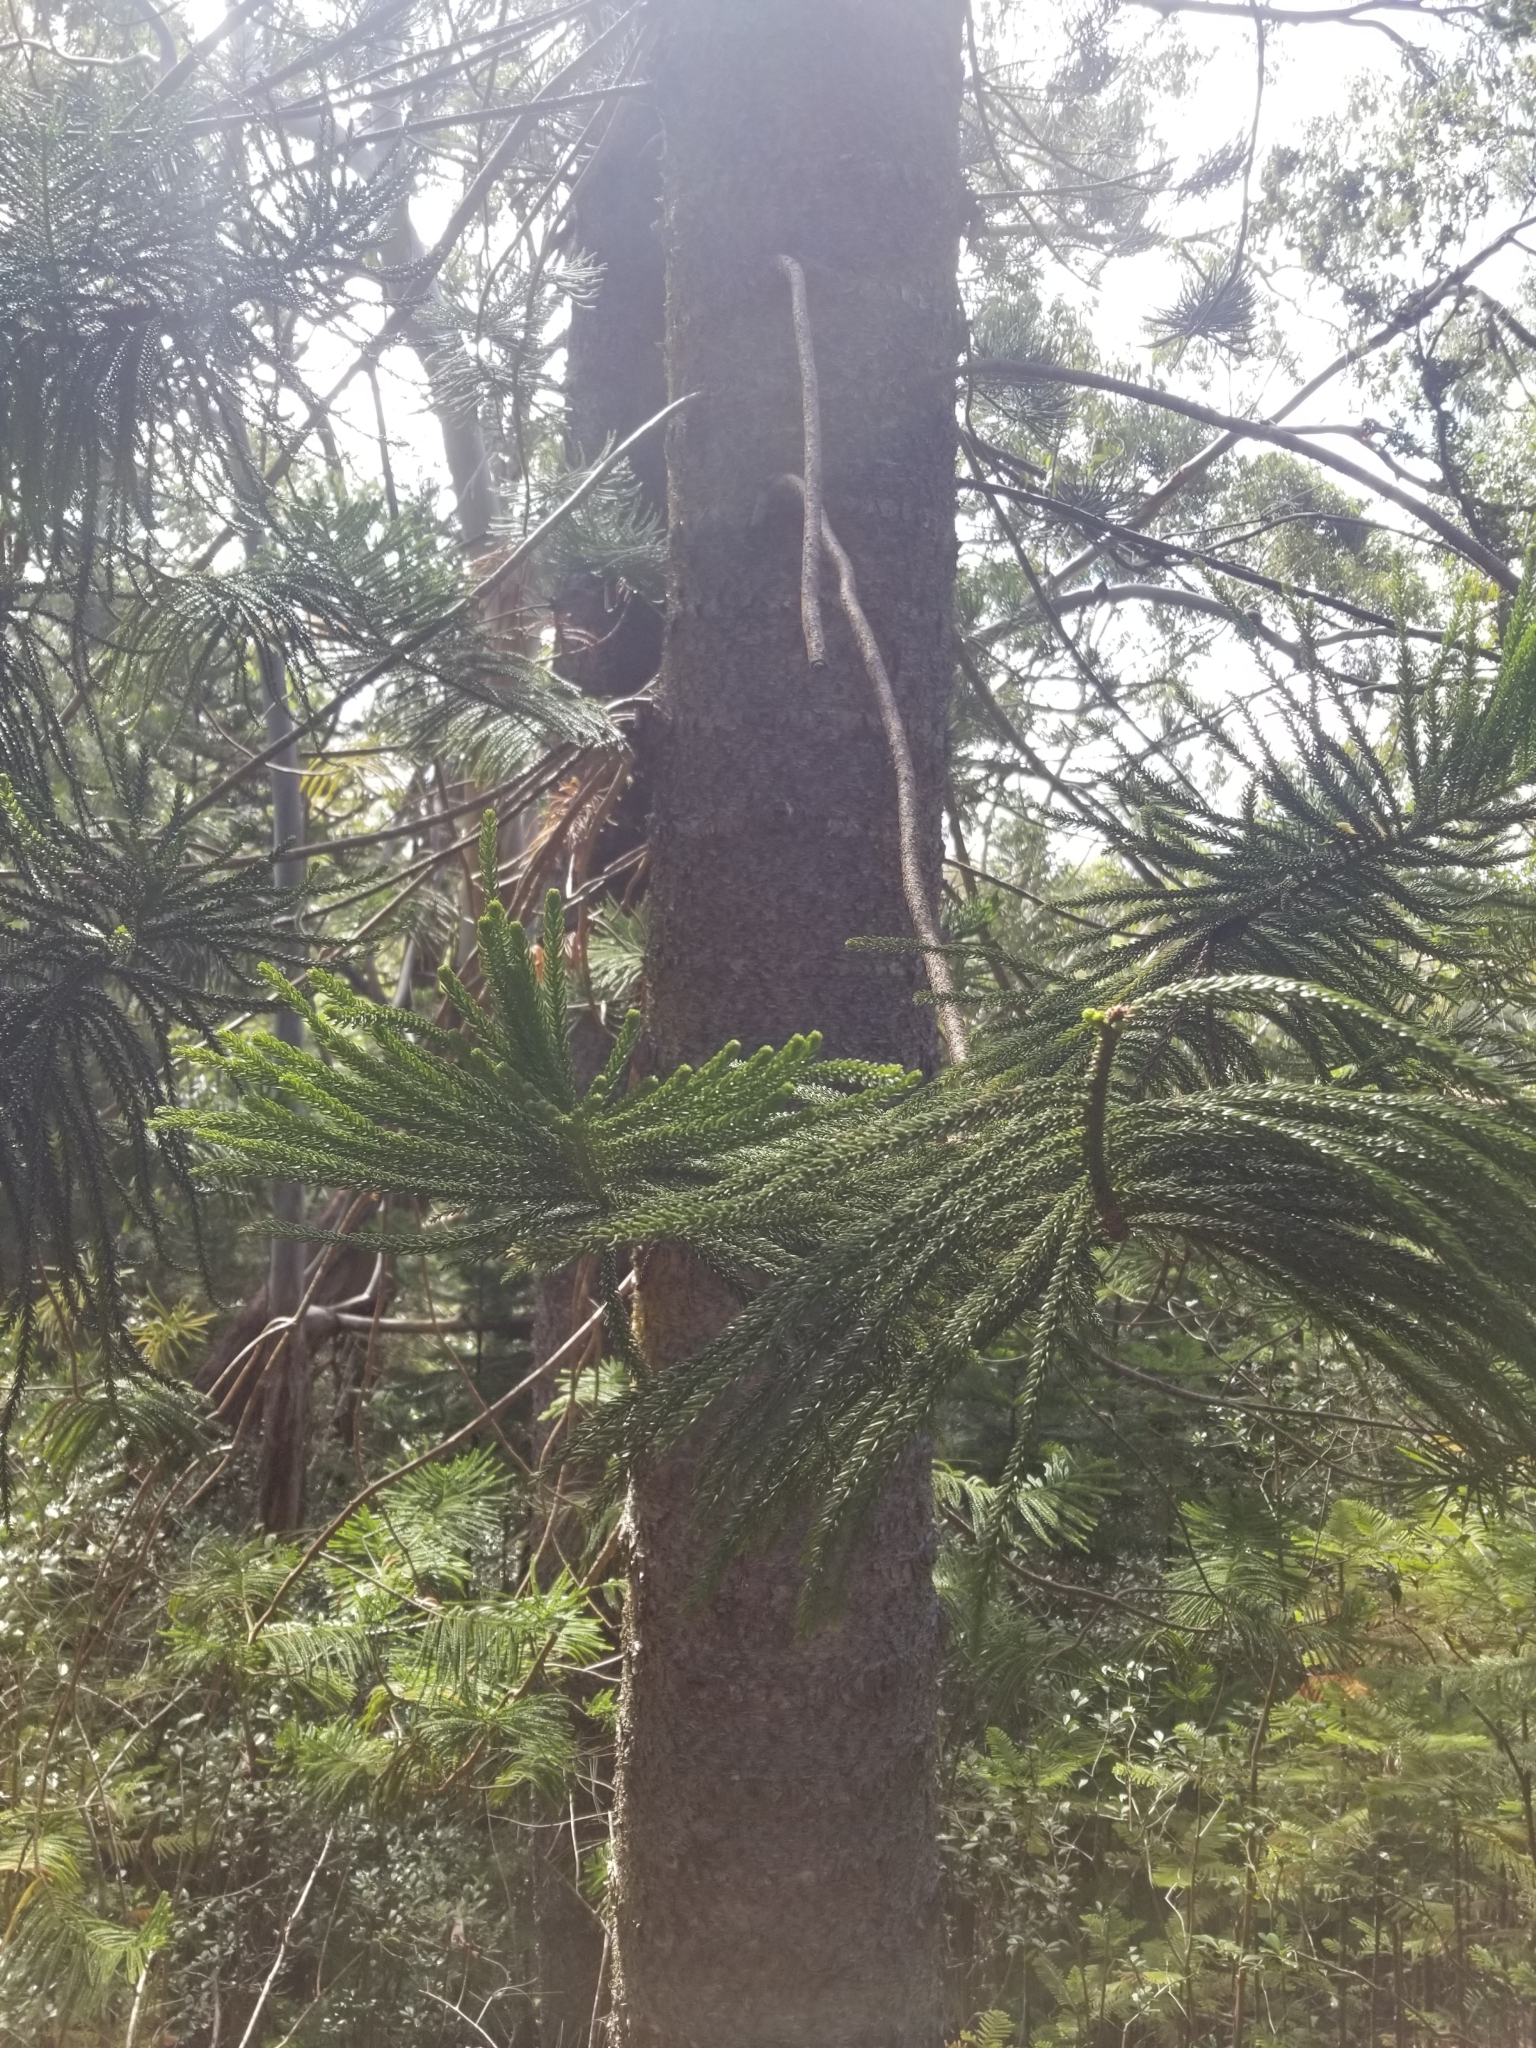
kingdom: Plantae
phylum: Tracheophyta
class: Pinopsida
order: Pinales
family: Araucariaceae
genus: Araucaria
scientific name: Araucaria columnaris
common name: Coral reef araucaria
